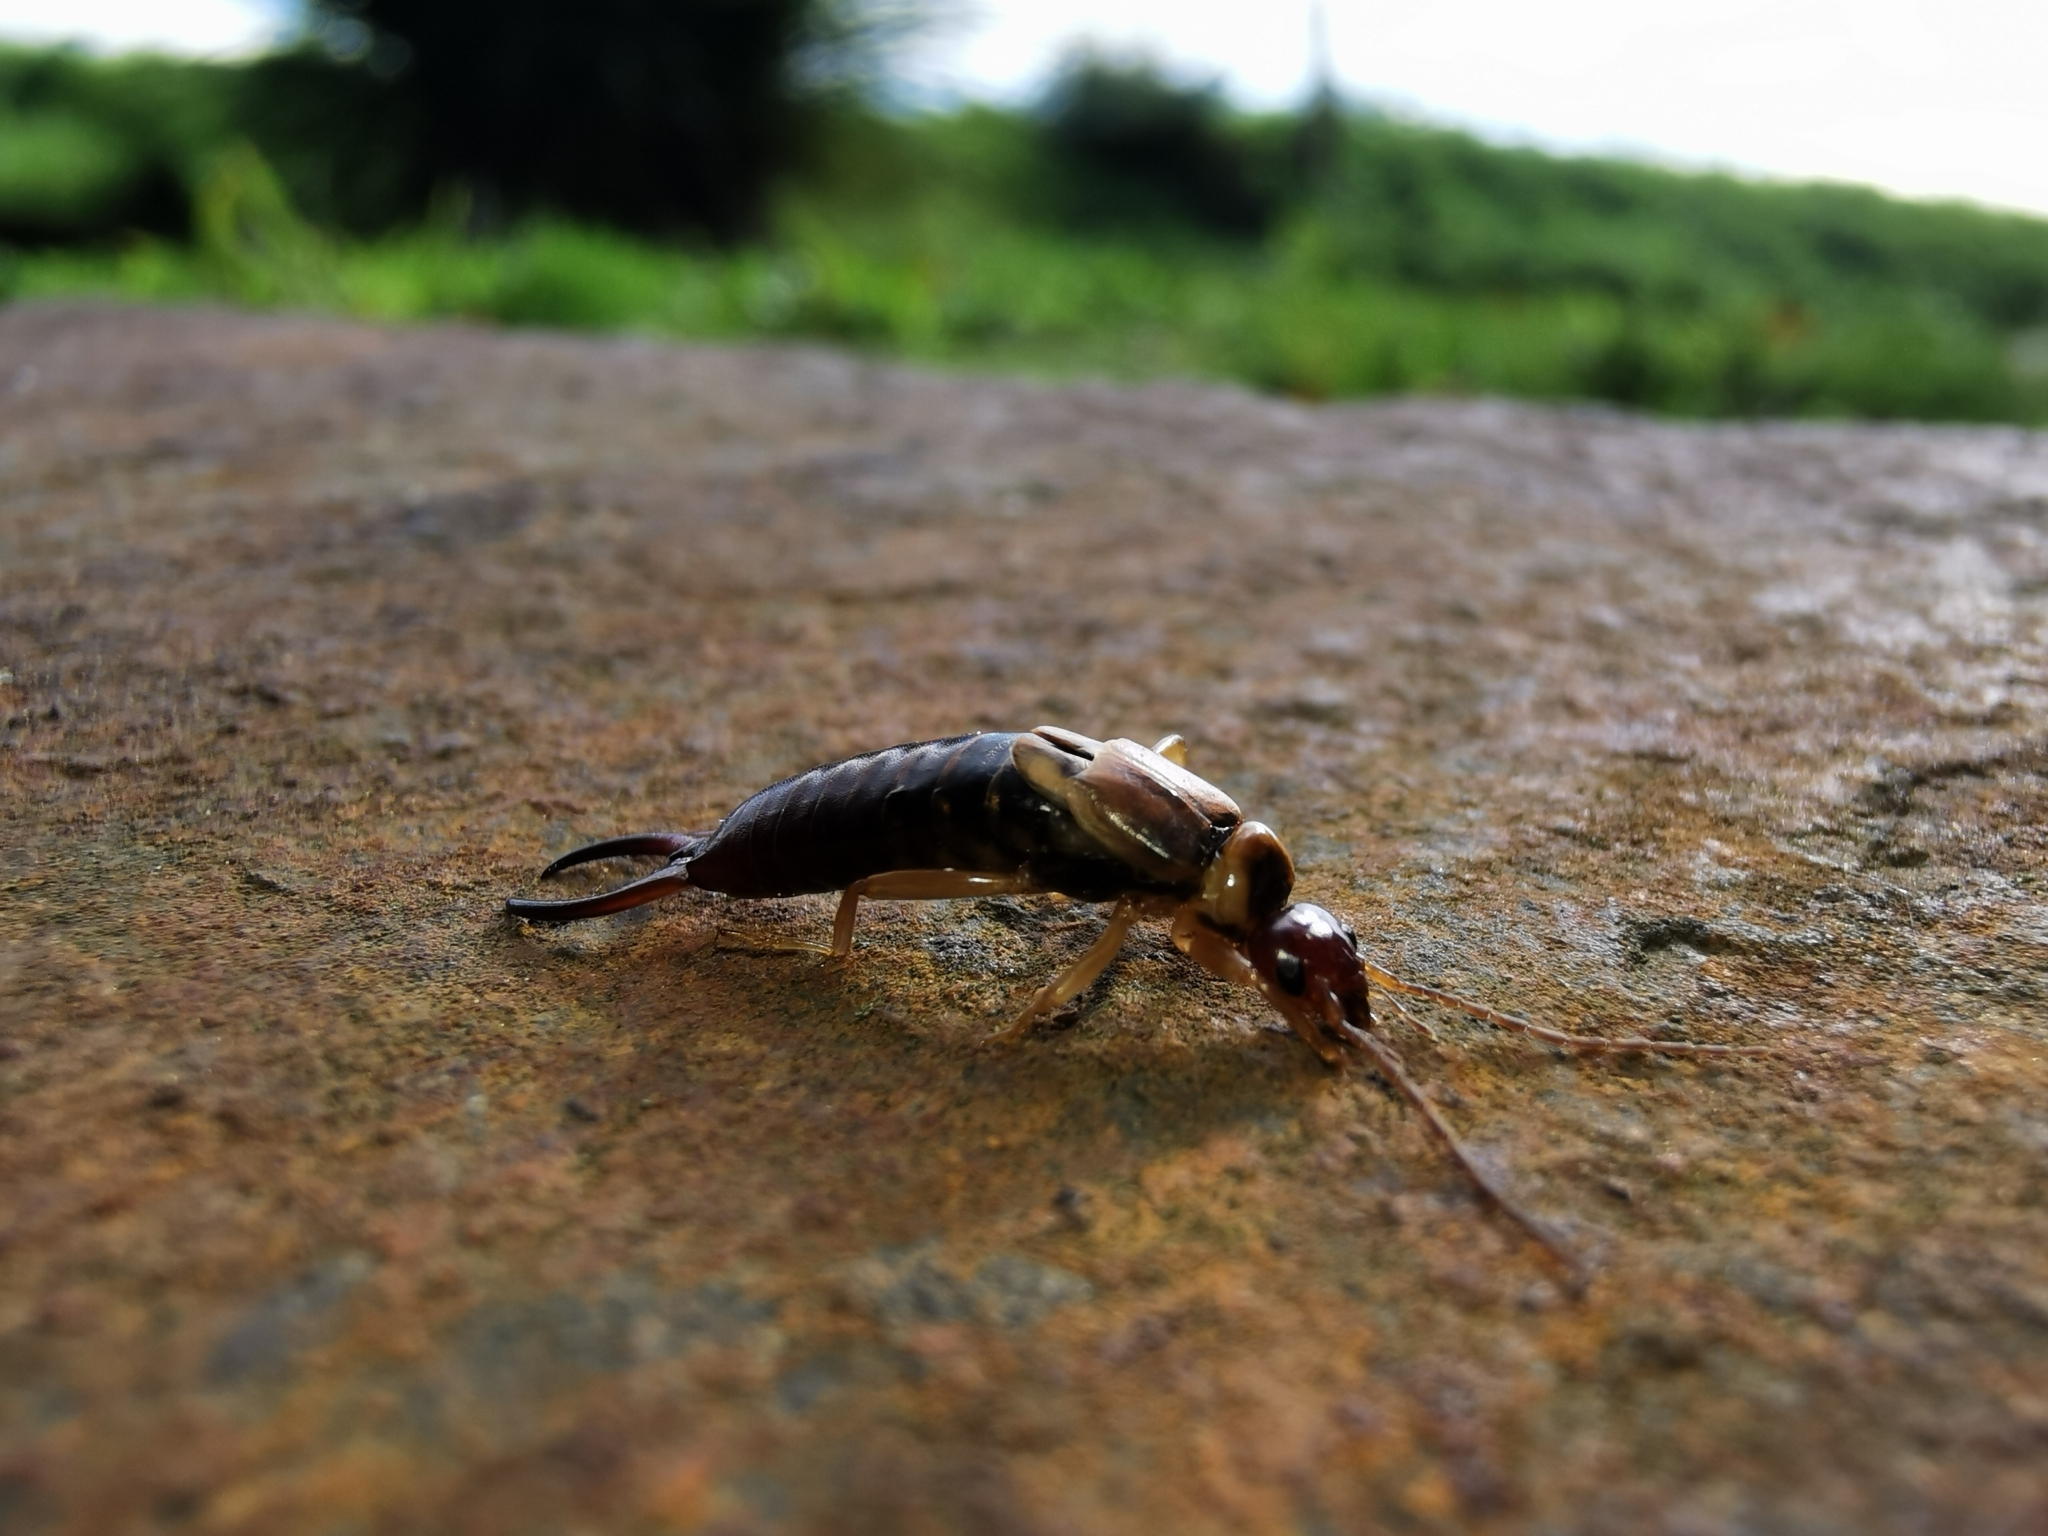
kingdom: Animalia
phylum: Arthropoda
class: Insecta
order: Dermaptera
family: Forficulidae
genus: Forficula
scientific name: Forficula
